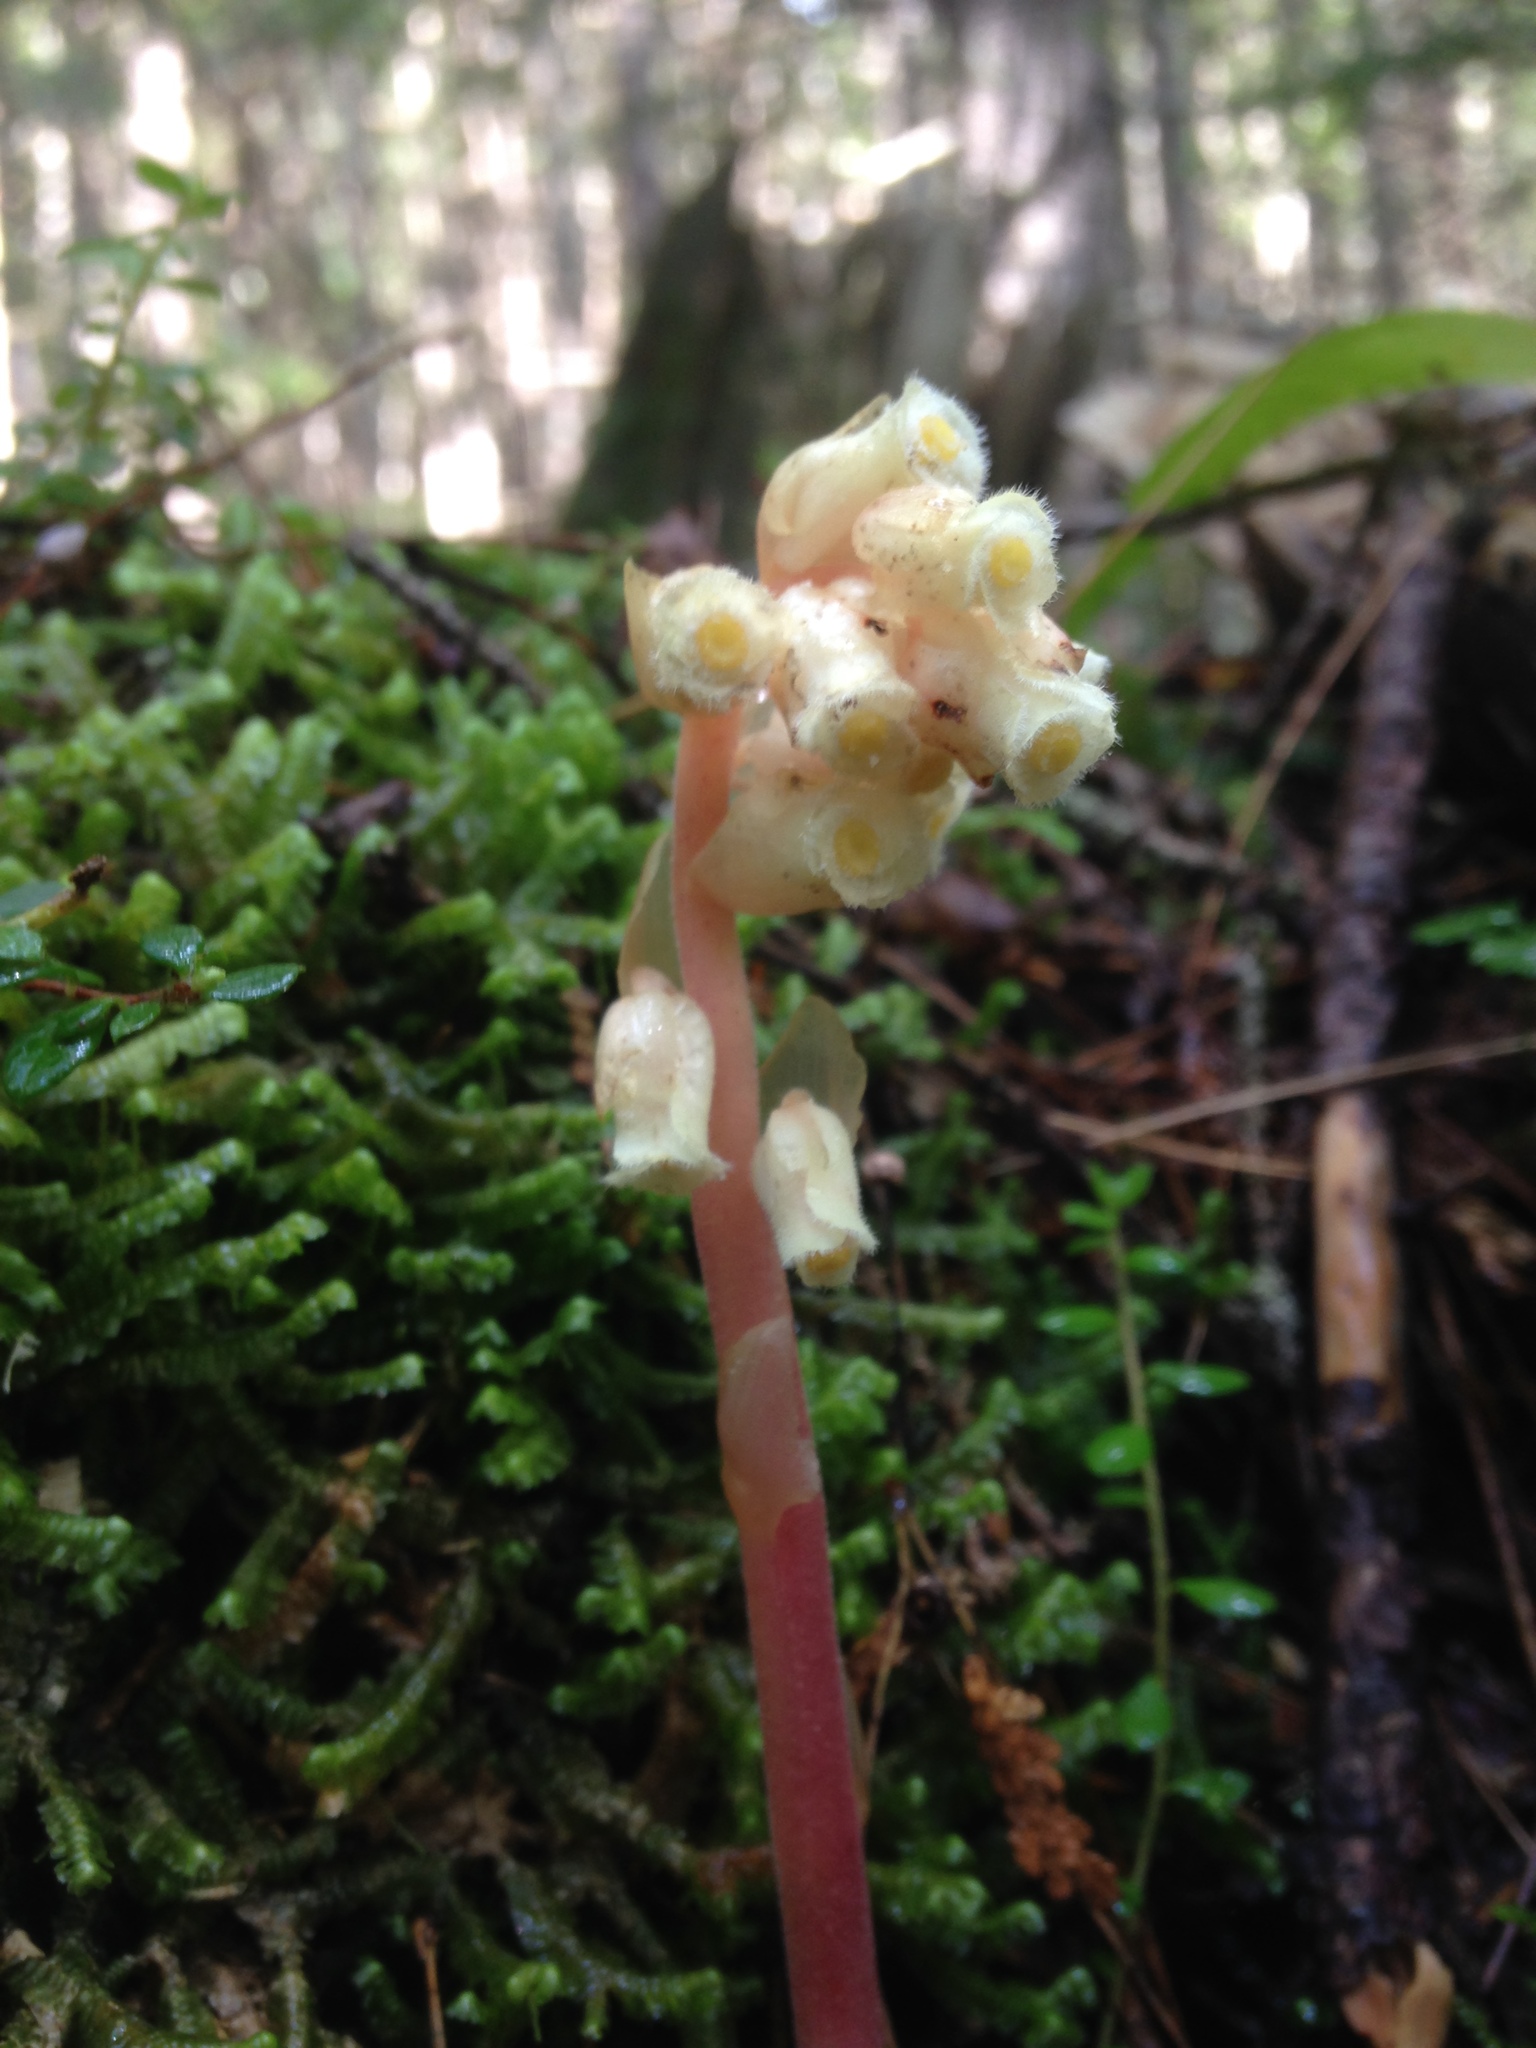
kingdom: Plantae
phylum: Tracheophyta
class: Magnoliopsida
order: Ericales
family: Ericaceae
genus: Hypopitys
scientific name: Hypopitys monotropa
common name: Yellow bird's-nest
